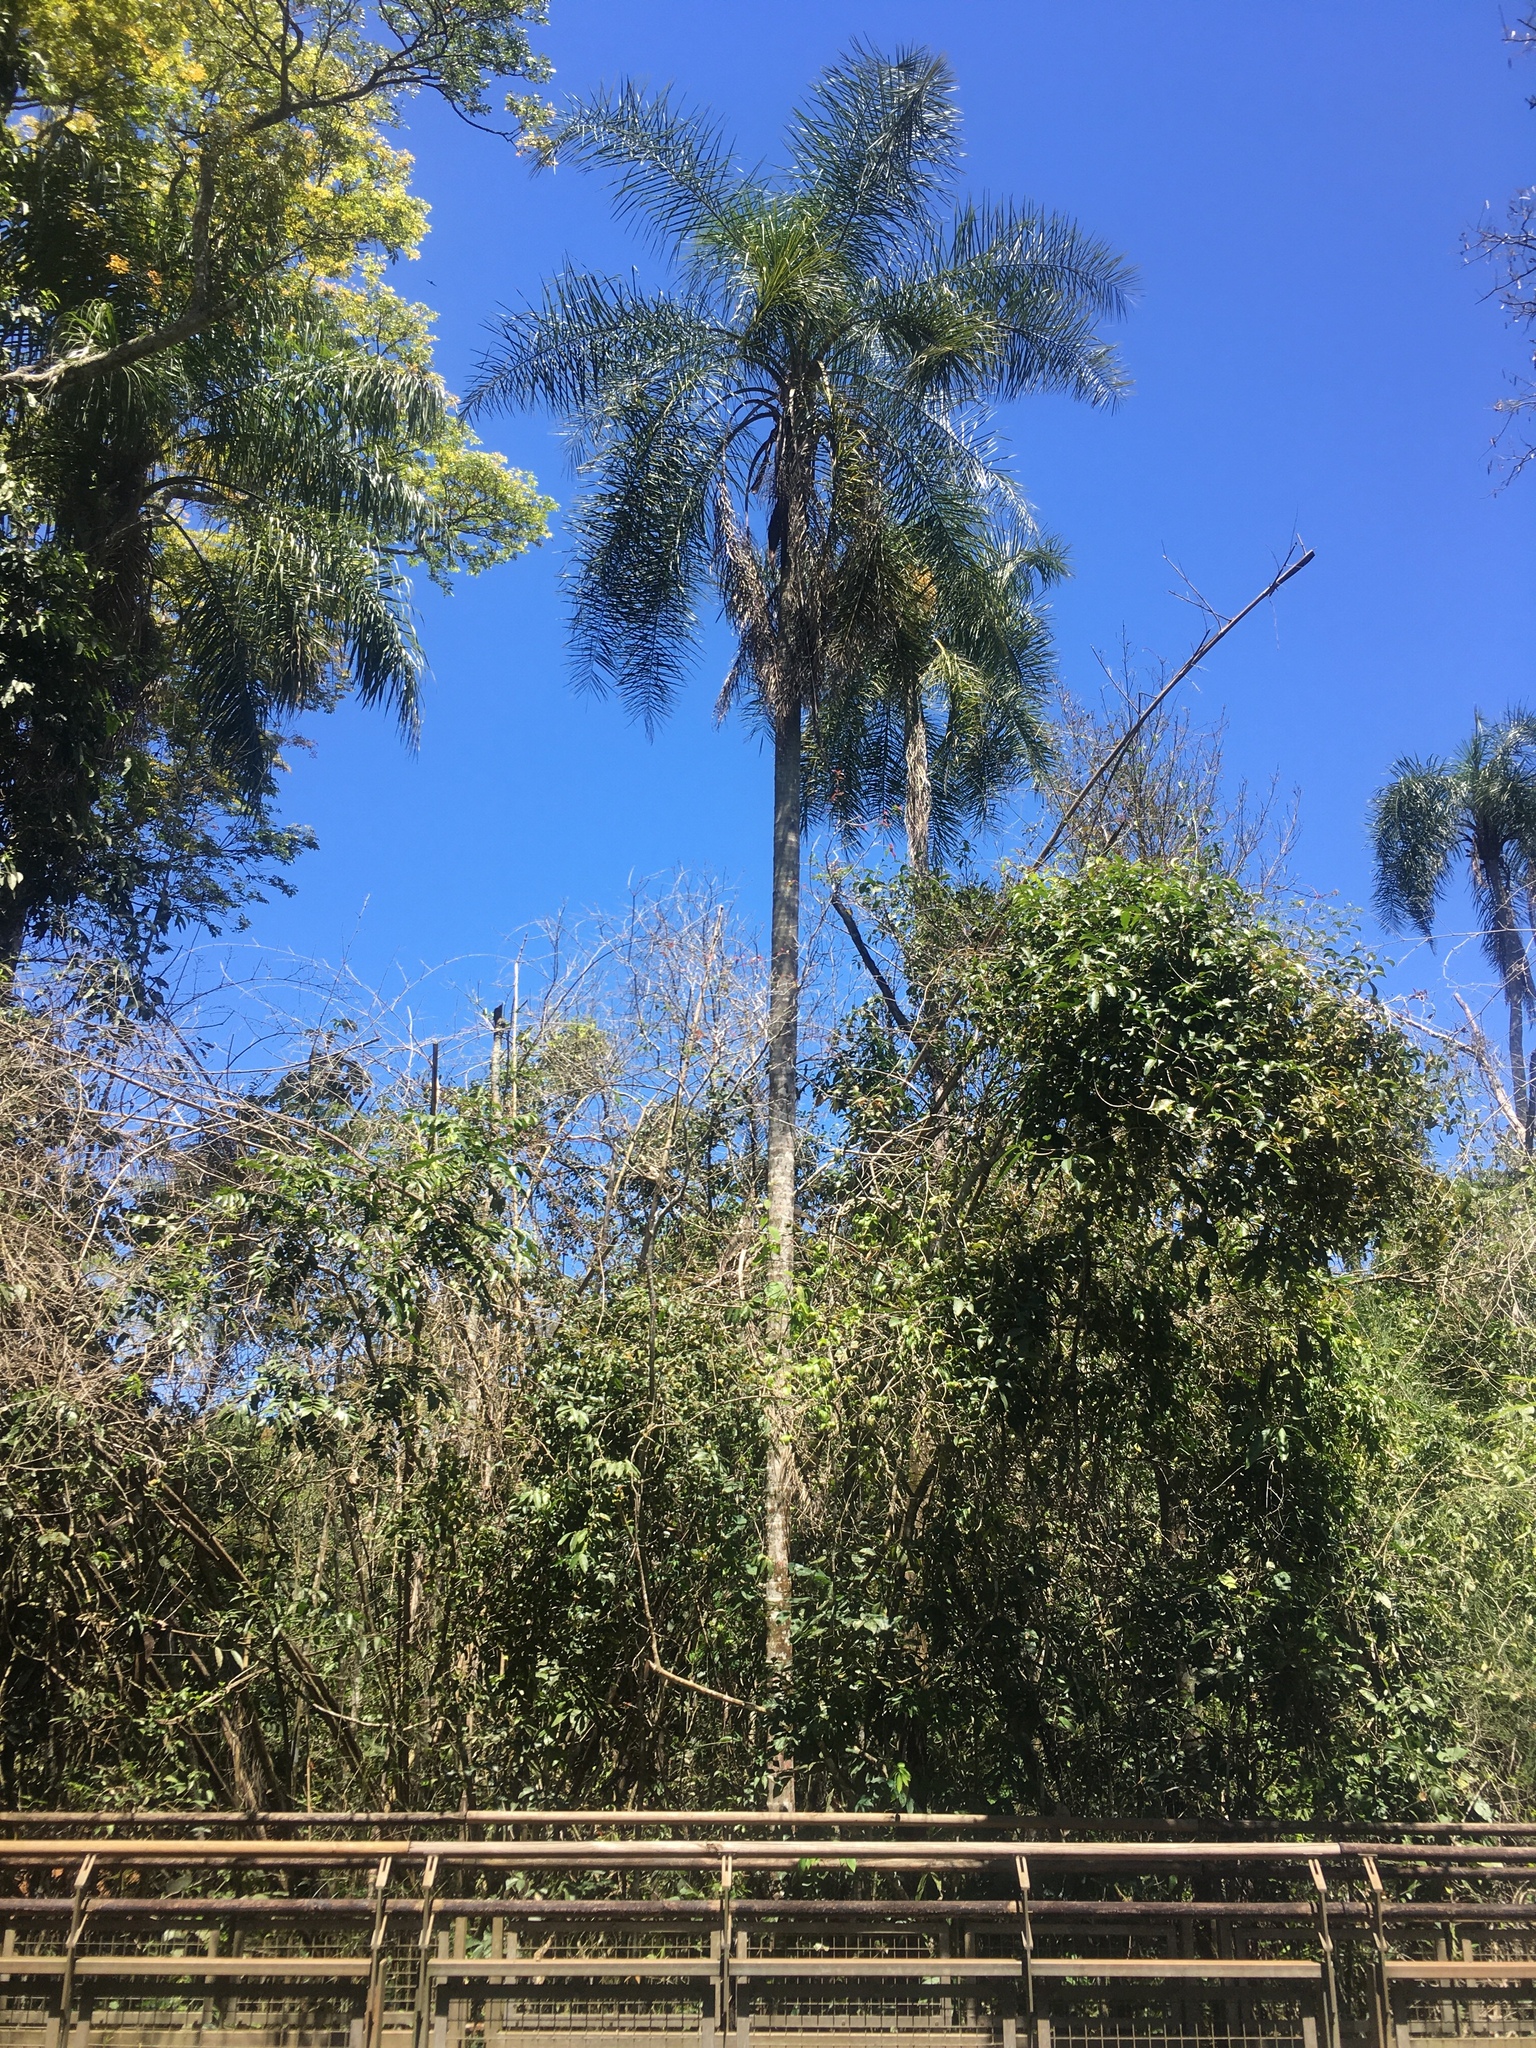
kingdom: Plantae
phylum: Tracheophyta
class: Liliopsida
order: Arecales
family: Arecaceae
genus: Syagrus
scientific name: Syagrus romanzoffiana
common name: Queen palm
